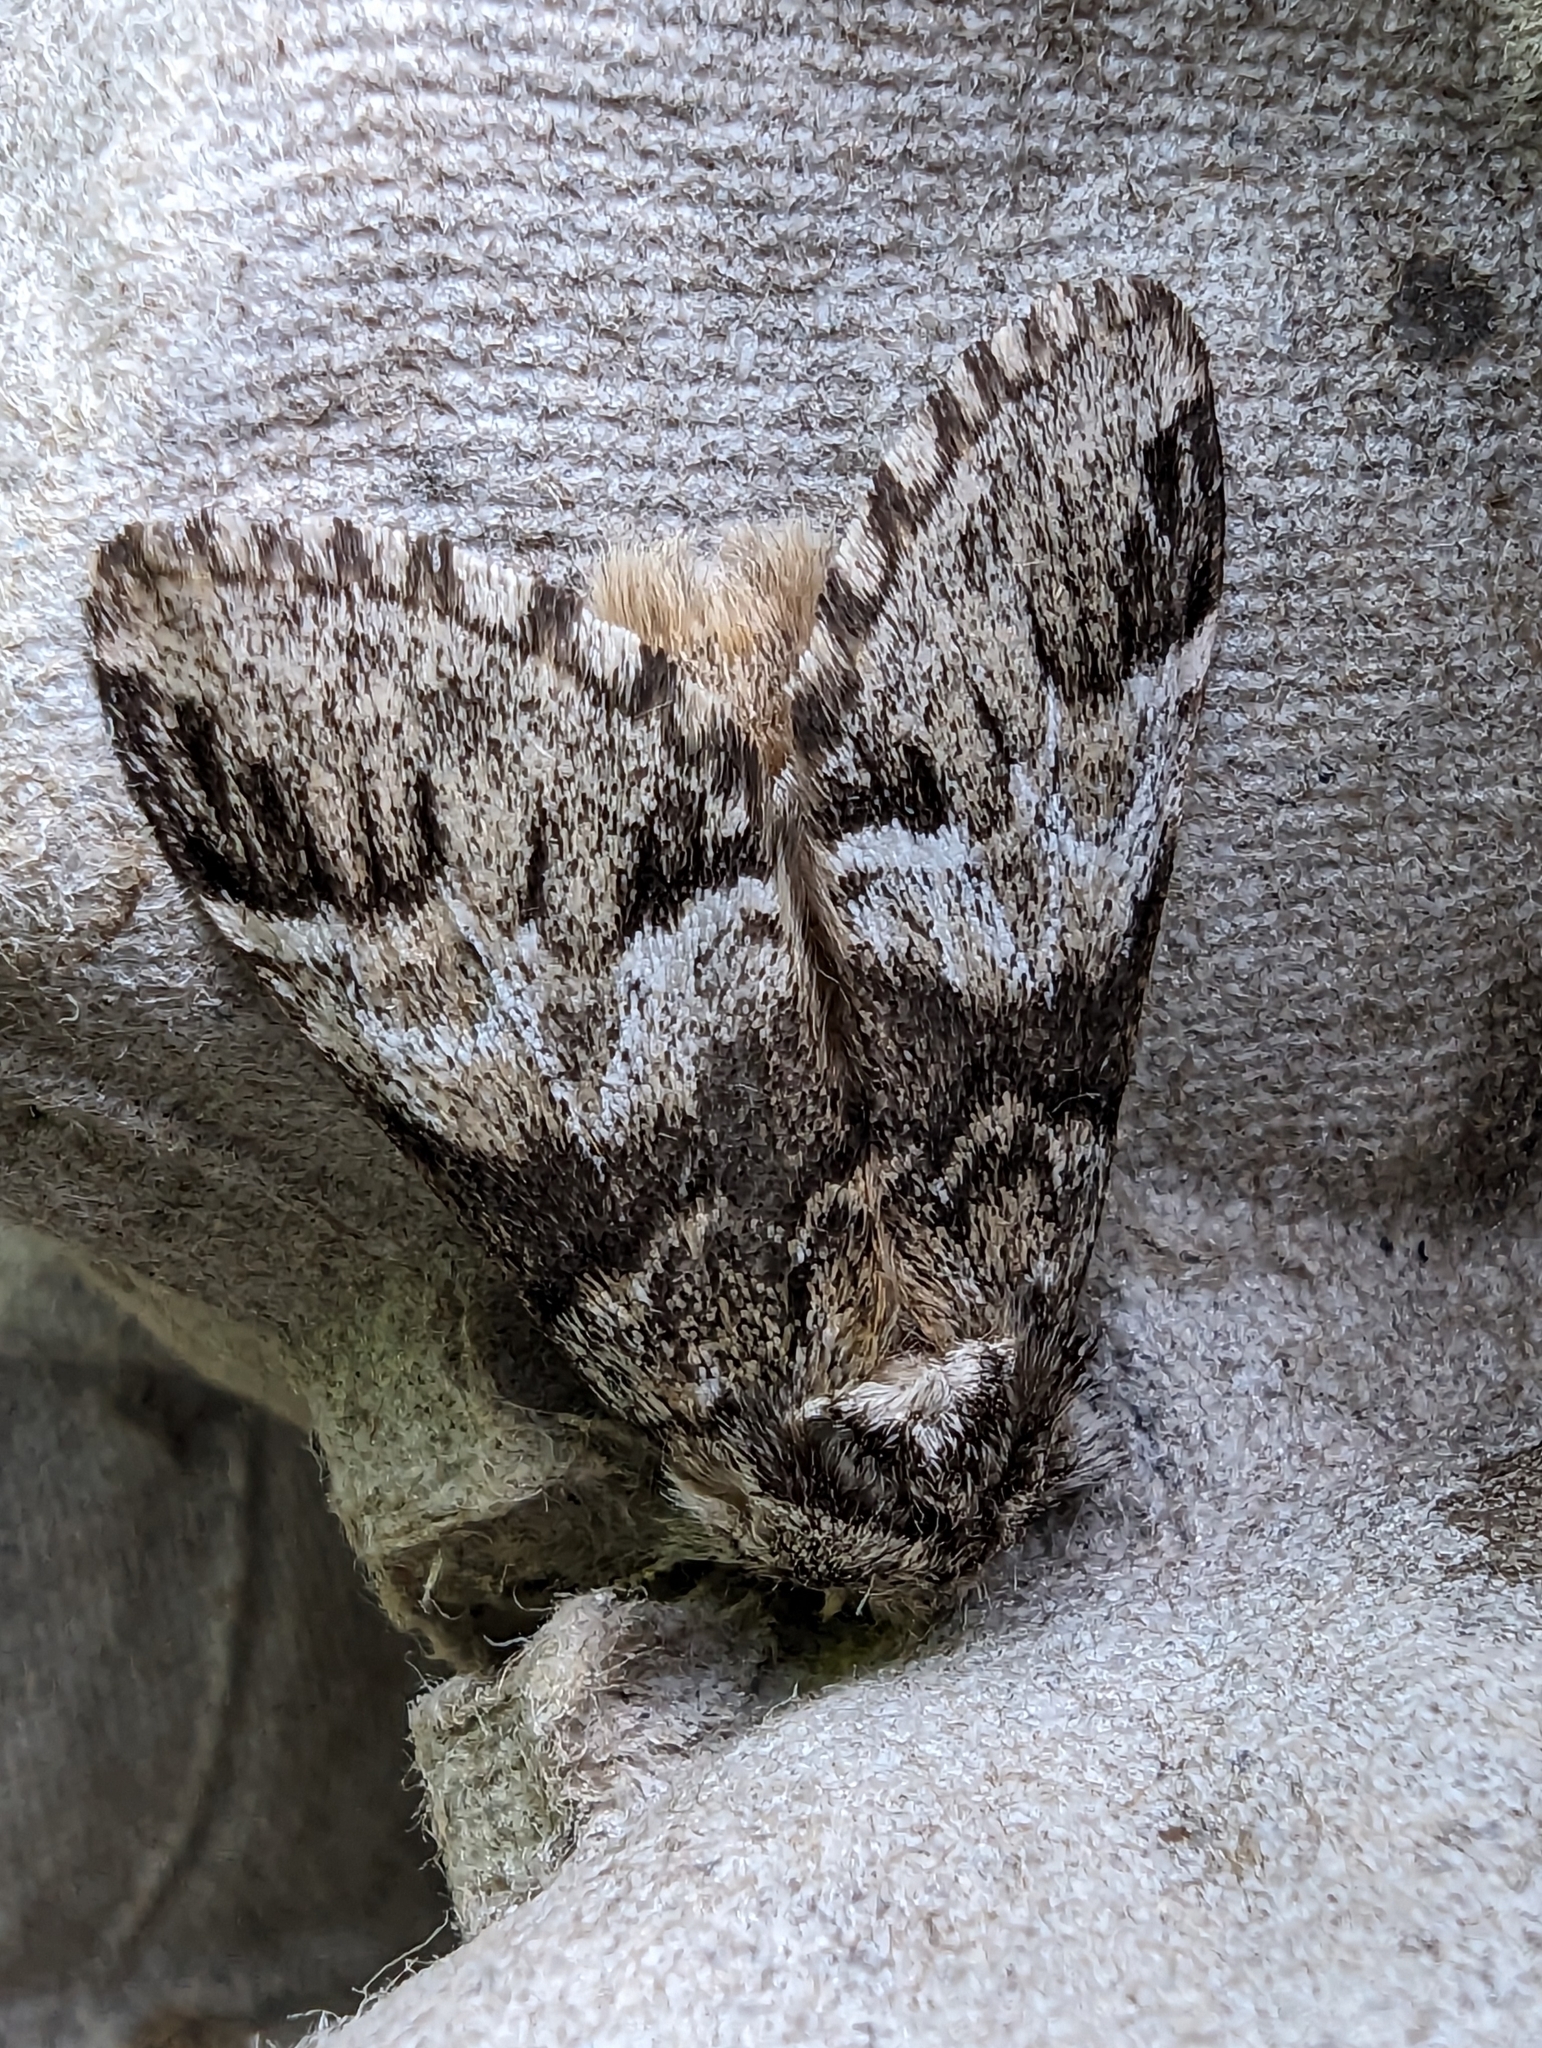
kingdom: Animalia
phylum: Arthropoda
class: Insecta
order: Lepidoptera
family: Notodontidae
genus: Drymonia
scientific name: Drymonia dodonaea
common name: Marbled brown
